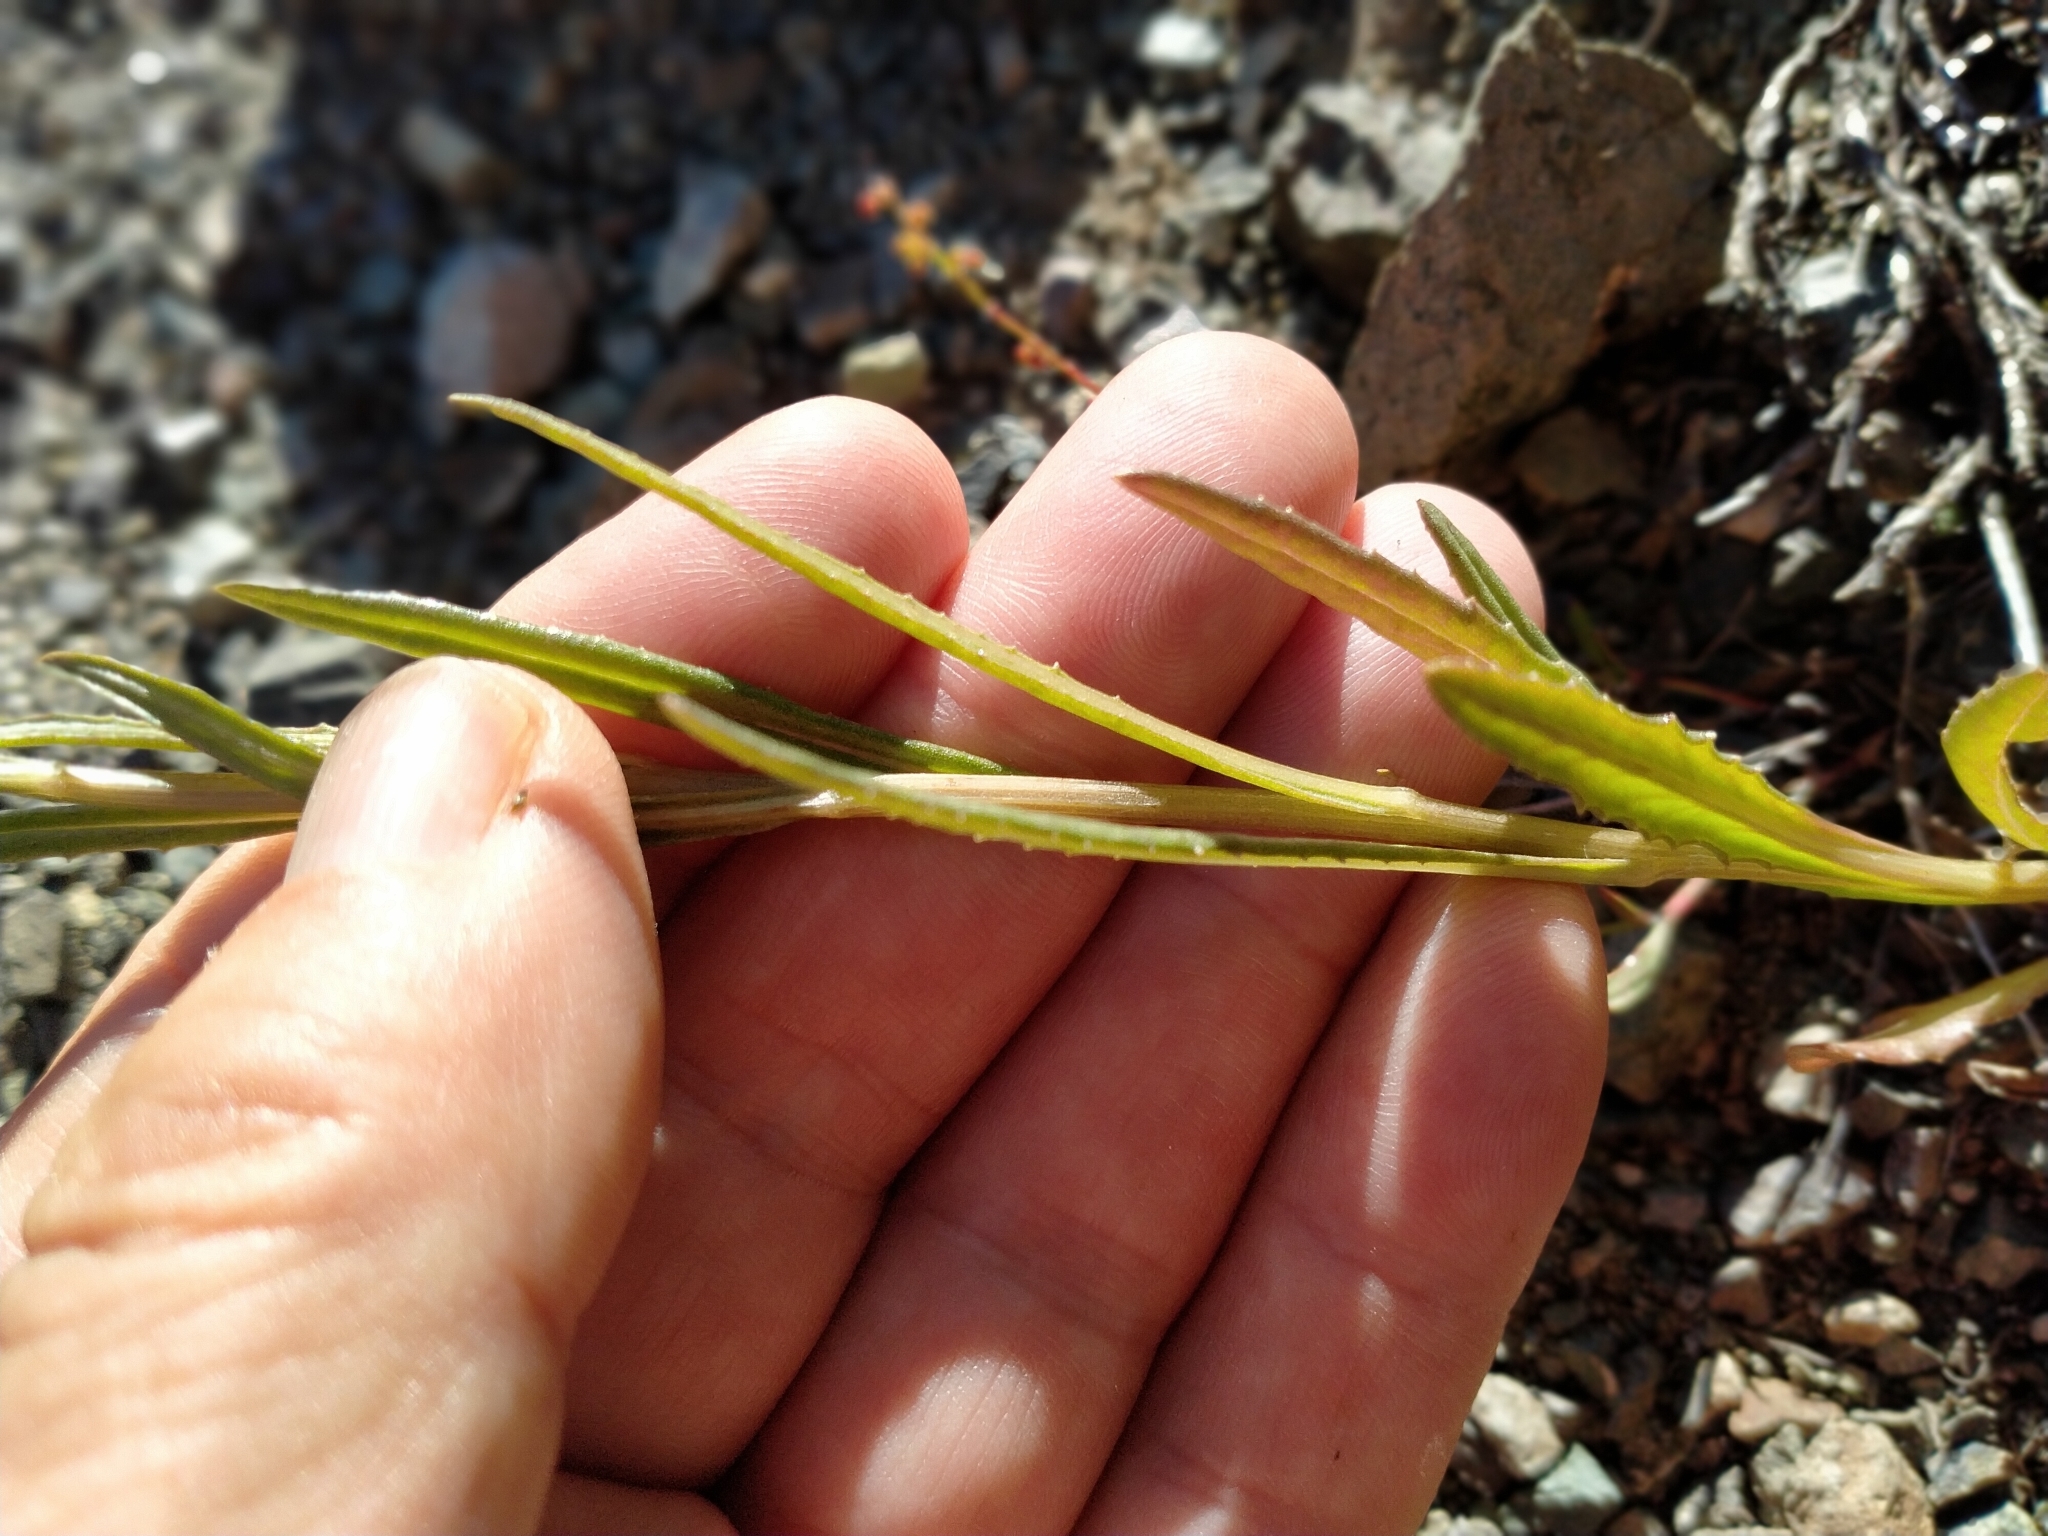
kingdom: Plantae
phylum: Tracheophyta
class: Magnoliopsida
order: Asterales
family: Asteraceae
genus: Senecio
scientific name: Senecio dunedinensis
